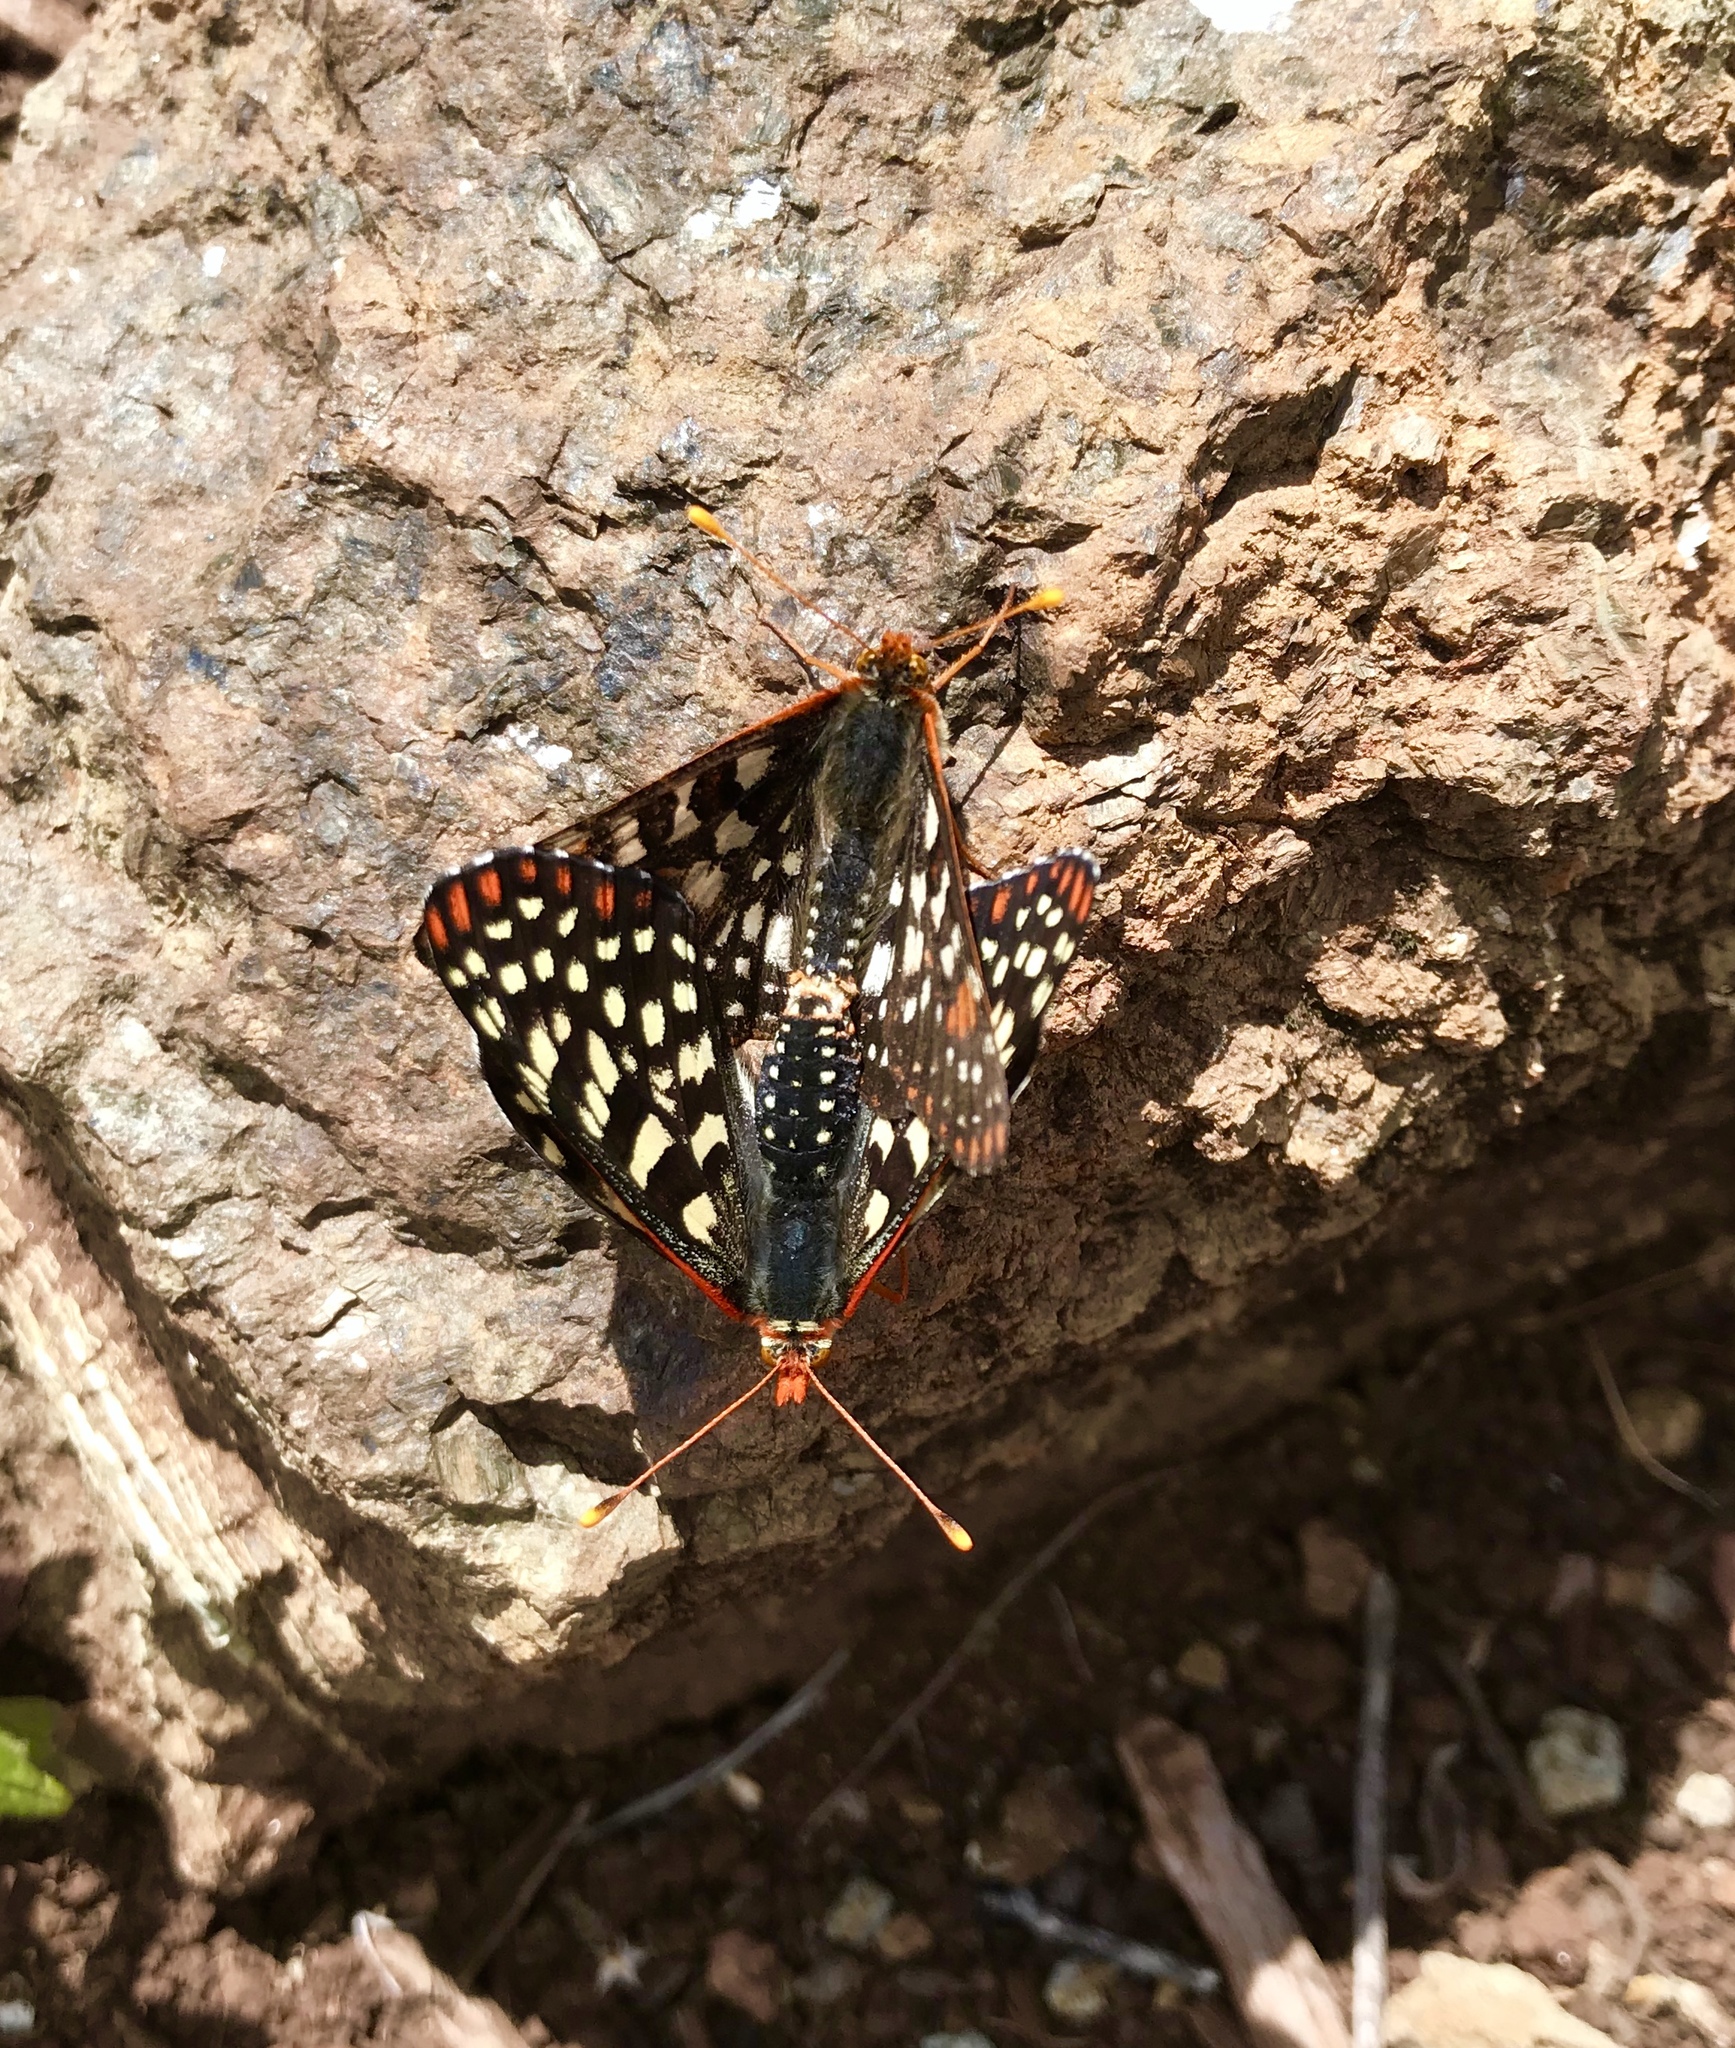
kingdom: Animalia
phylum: Arthropoda
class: Insecta
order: Lepidoptera
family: Nymphalidae
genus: Occidryas
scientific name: Occidryas chalcedona
